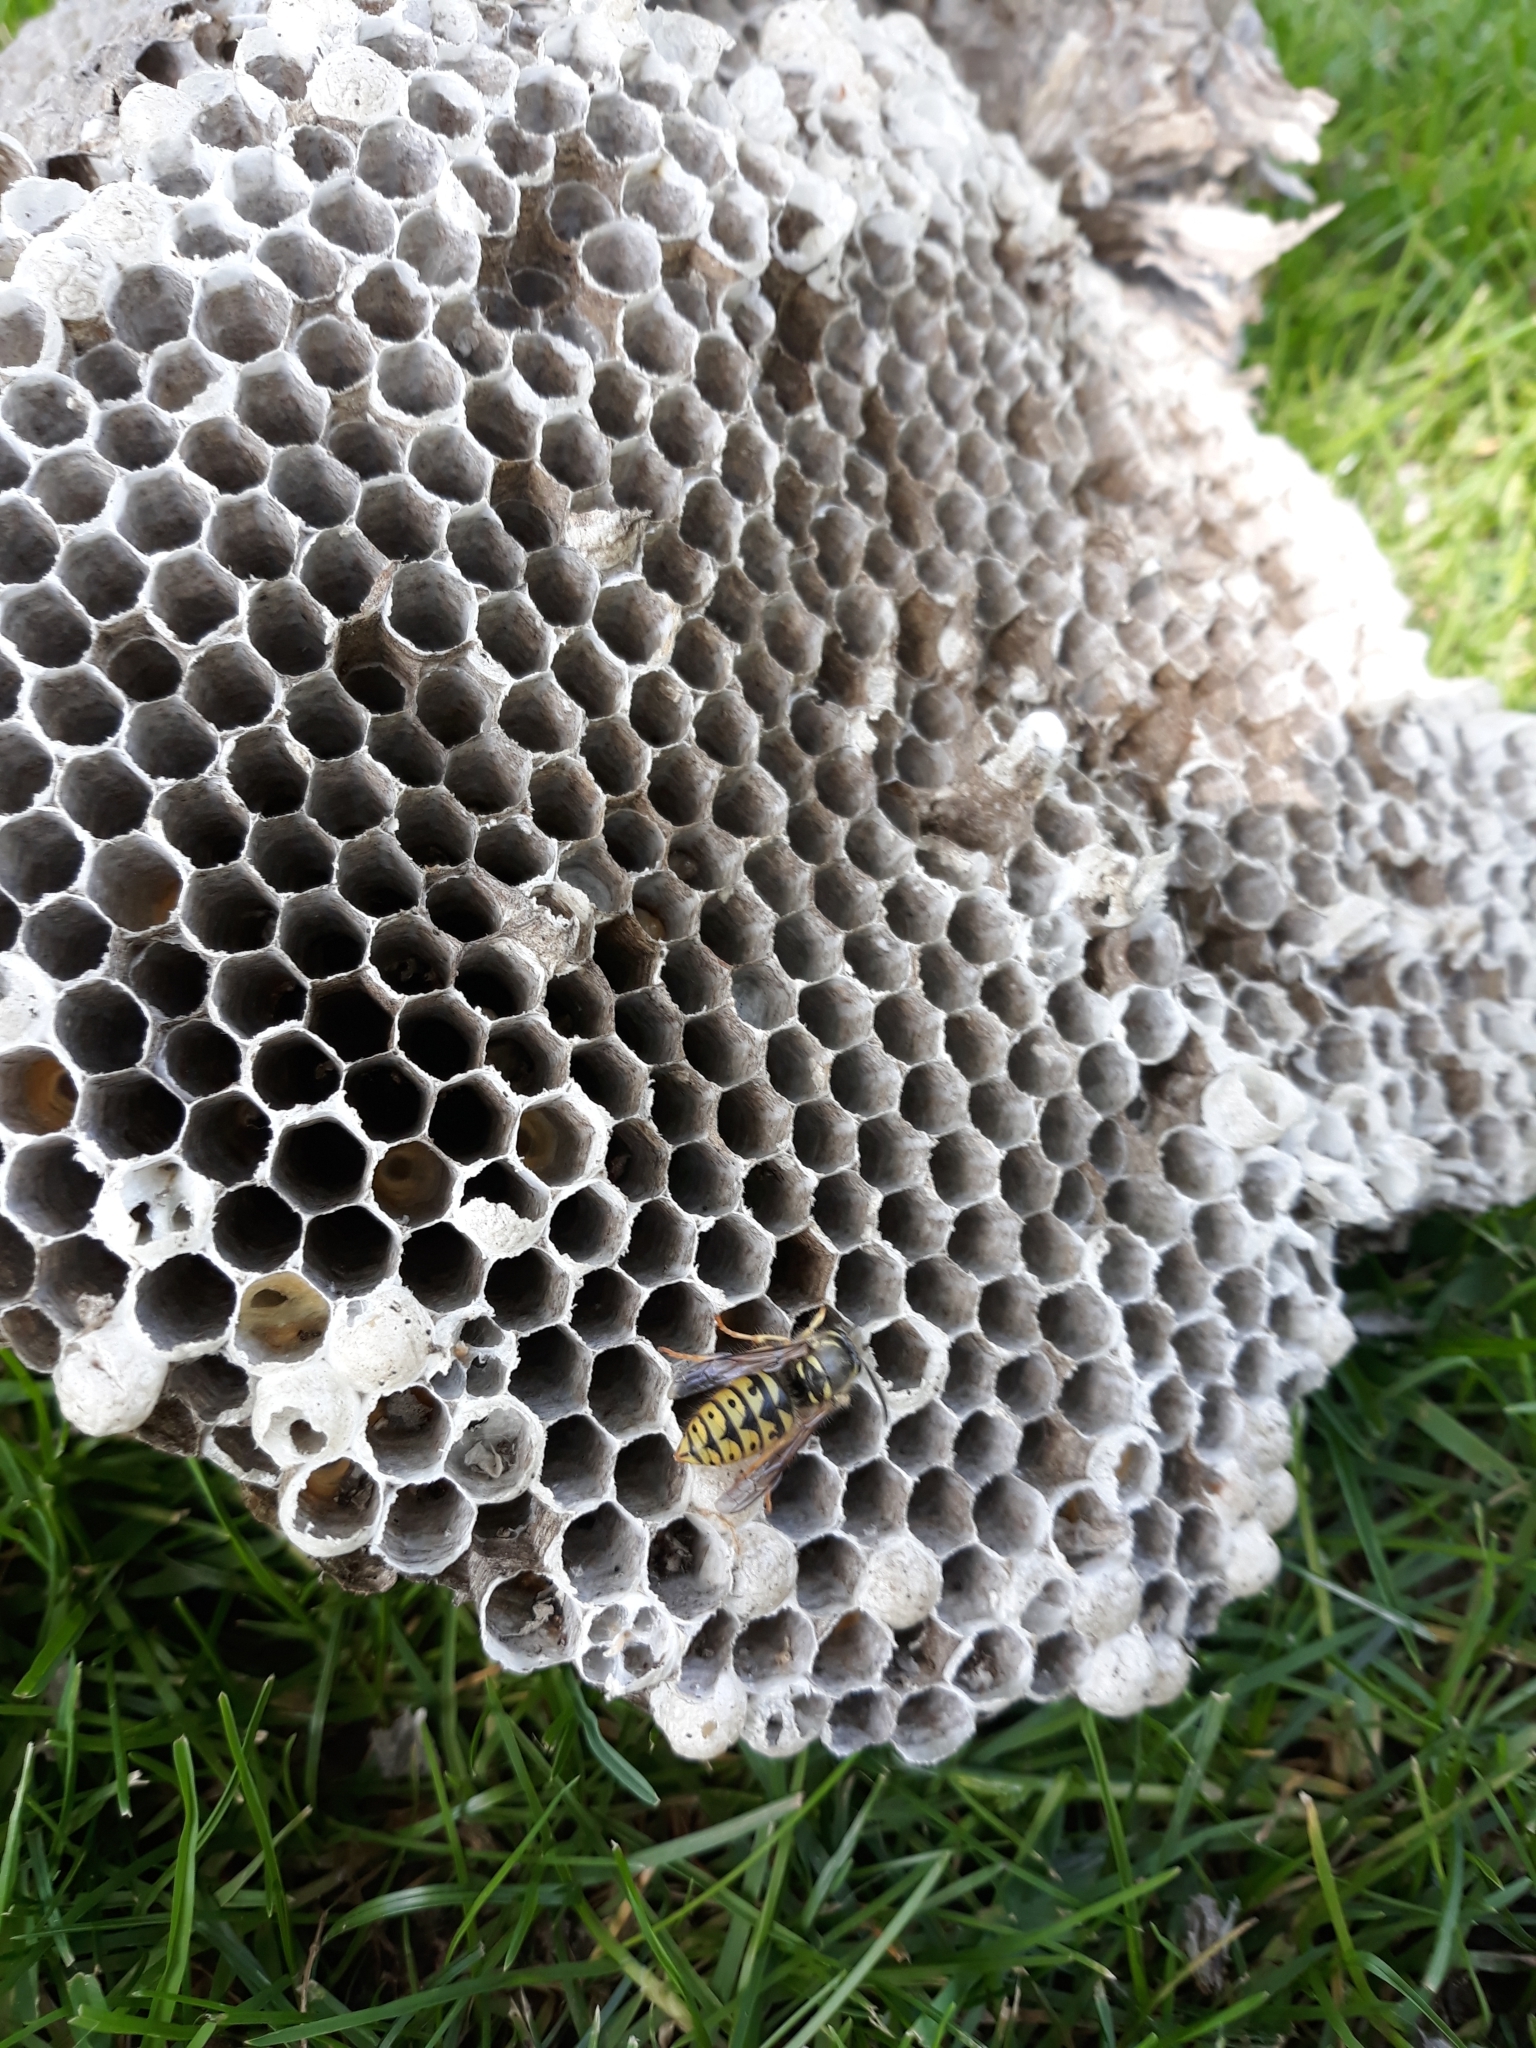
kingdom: Animalia
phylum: Arthropoda
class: Insecta
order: Hymenoptera
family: Vespidae
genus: Dolichovespula
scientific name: Dolichovespula arenaria
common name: Aerial yellowjacket
